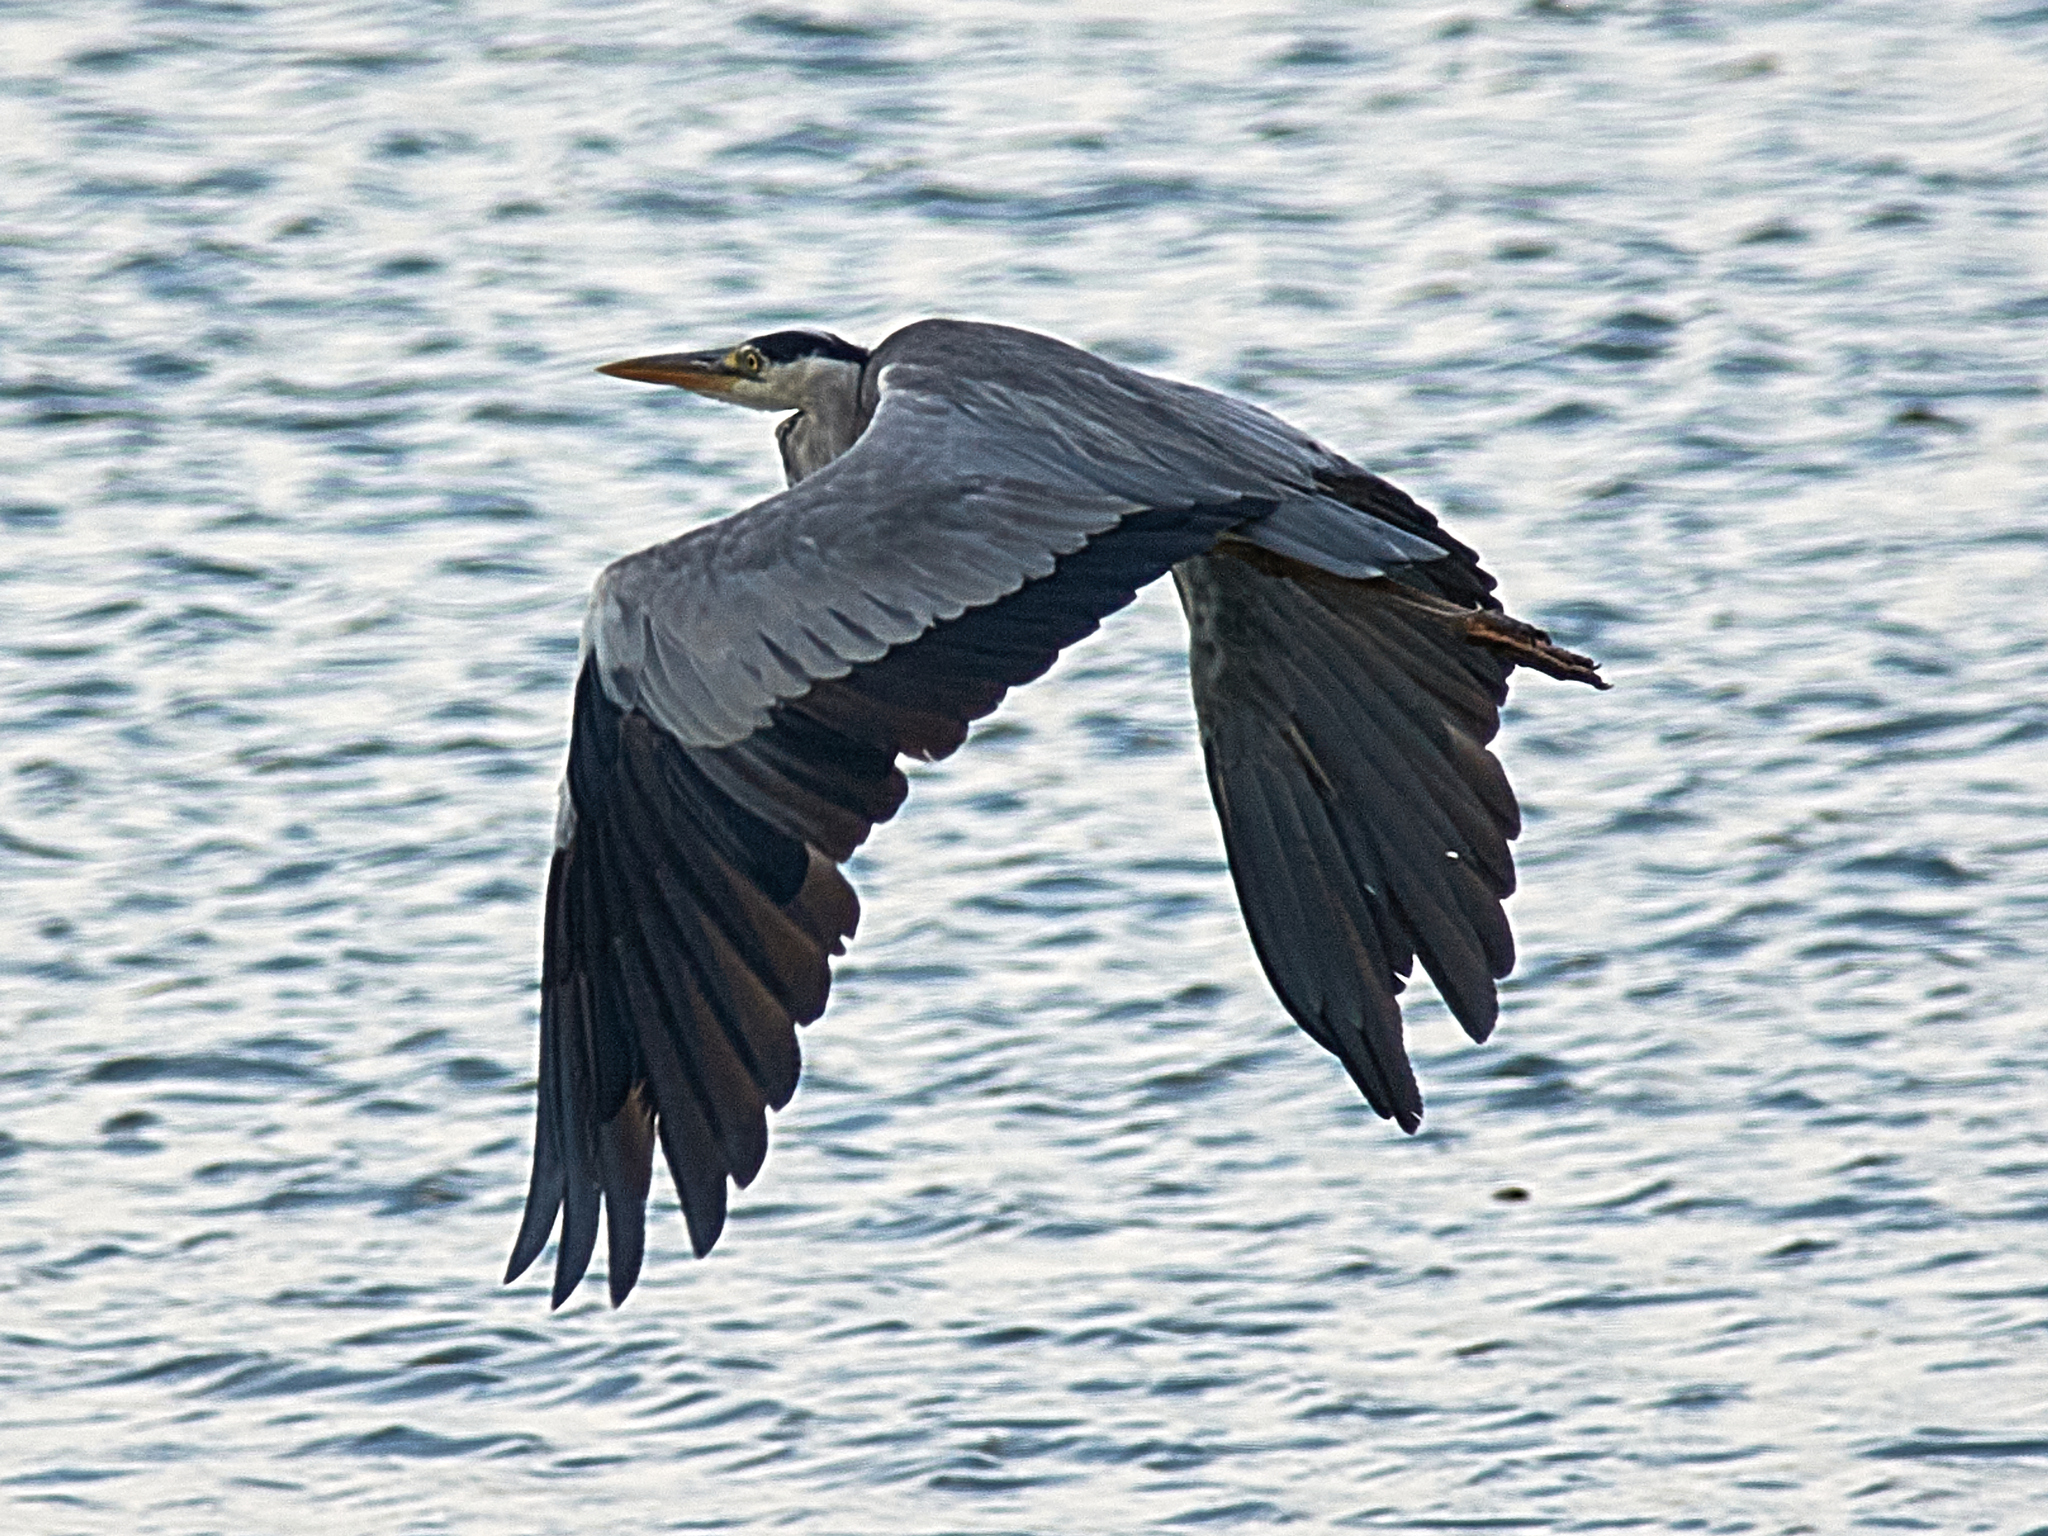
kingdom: Animalia
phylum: Chordata
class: Aves
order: Pelecaniformes
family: Ardeidae
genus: Ardea
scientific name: Ardea cinerea
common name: Grey heron
